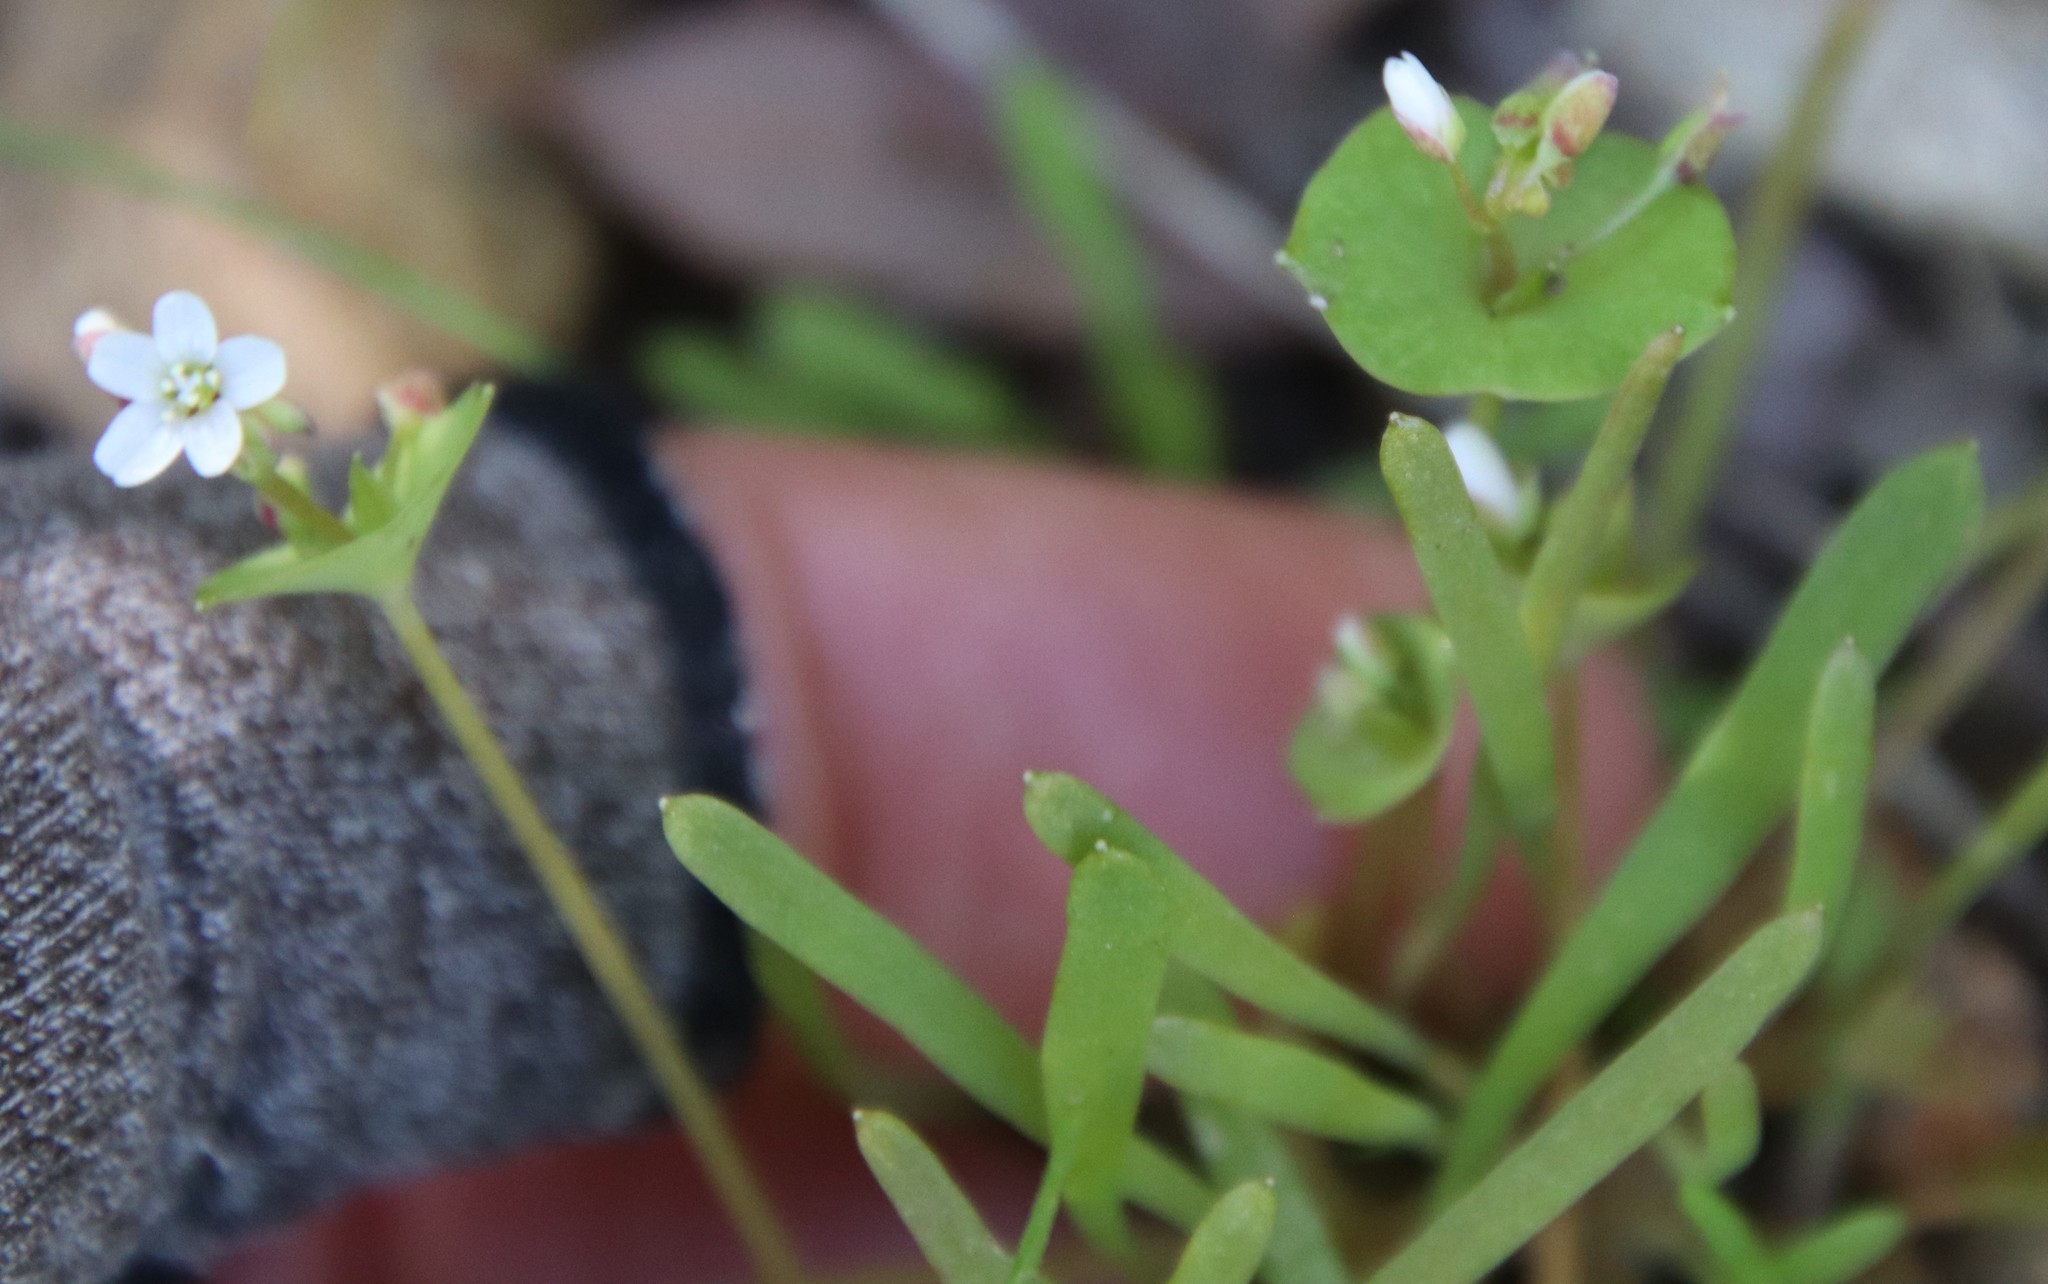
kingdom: Plantae
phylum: Tracheophyta
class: Magnoliopsida
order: Caryophyllales
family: Montiaceae
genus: Claytonia
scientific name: Claytonia parviflora
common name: Indian-lettuce
